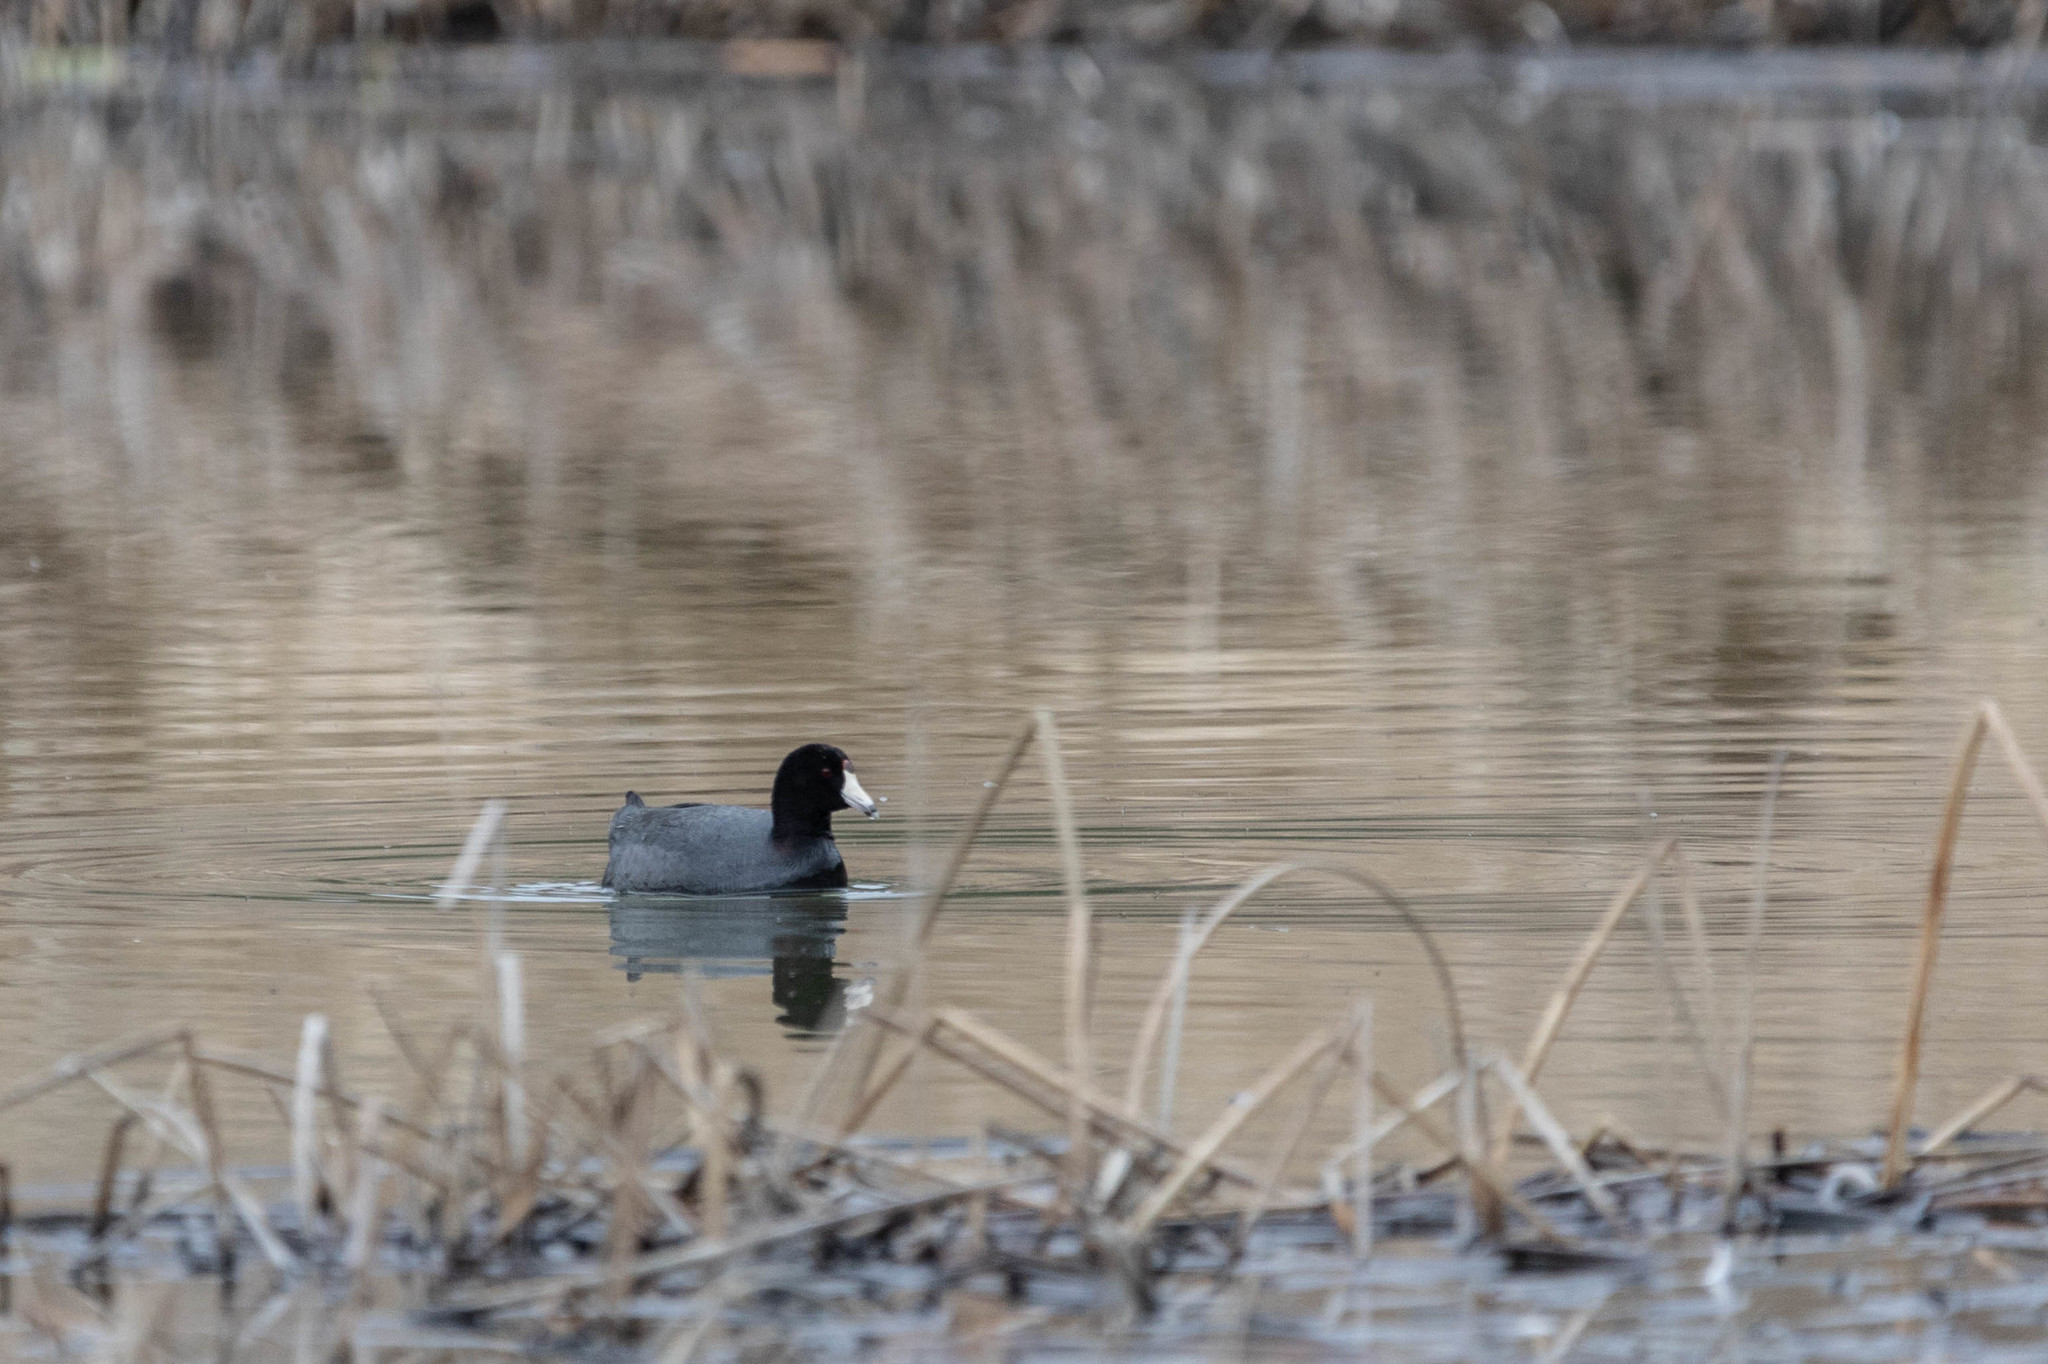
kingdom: Animalia
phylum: Chordata
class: Aves
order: Gruiformes
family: Rallidae
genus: Fulica
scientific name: Fulica americana
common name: American coot
